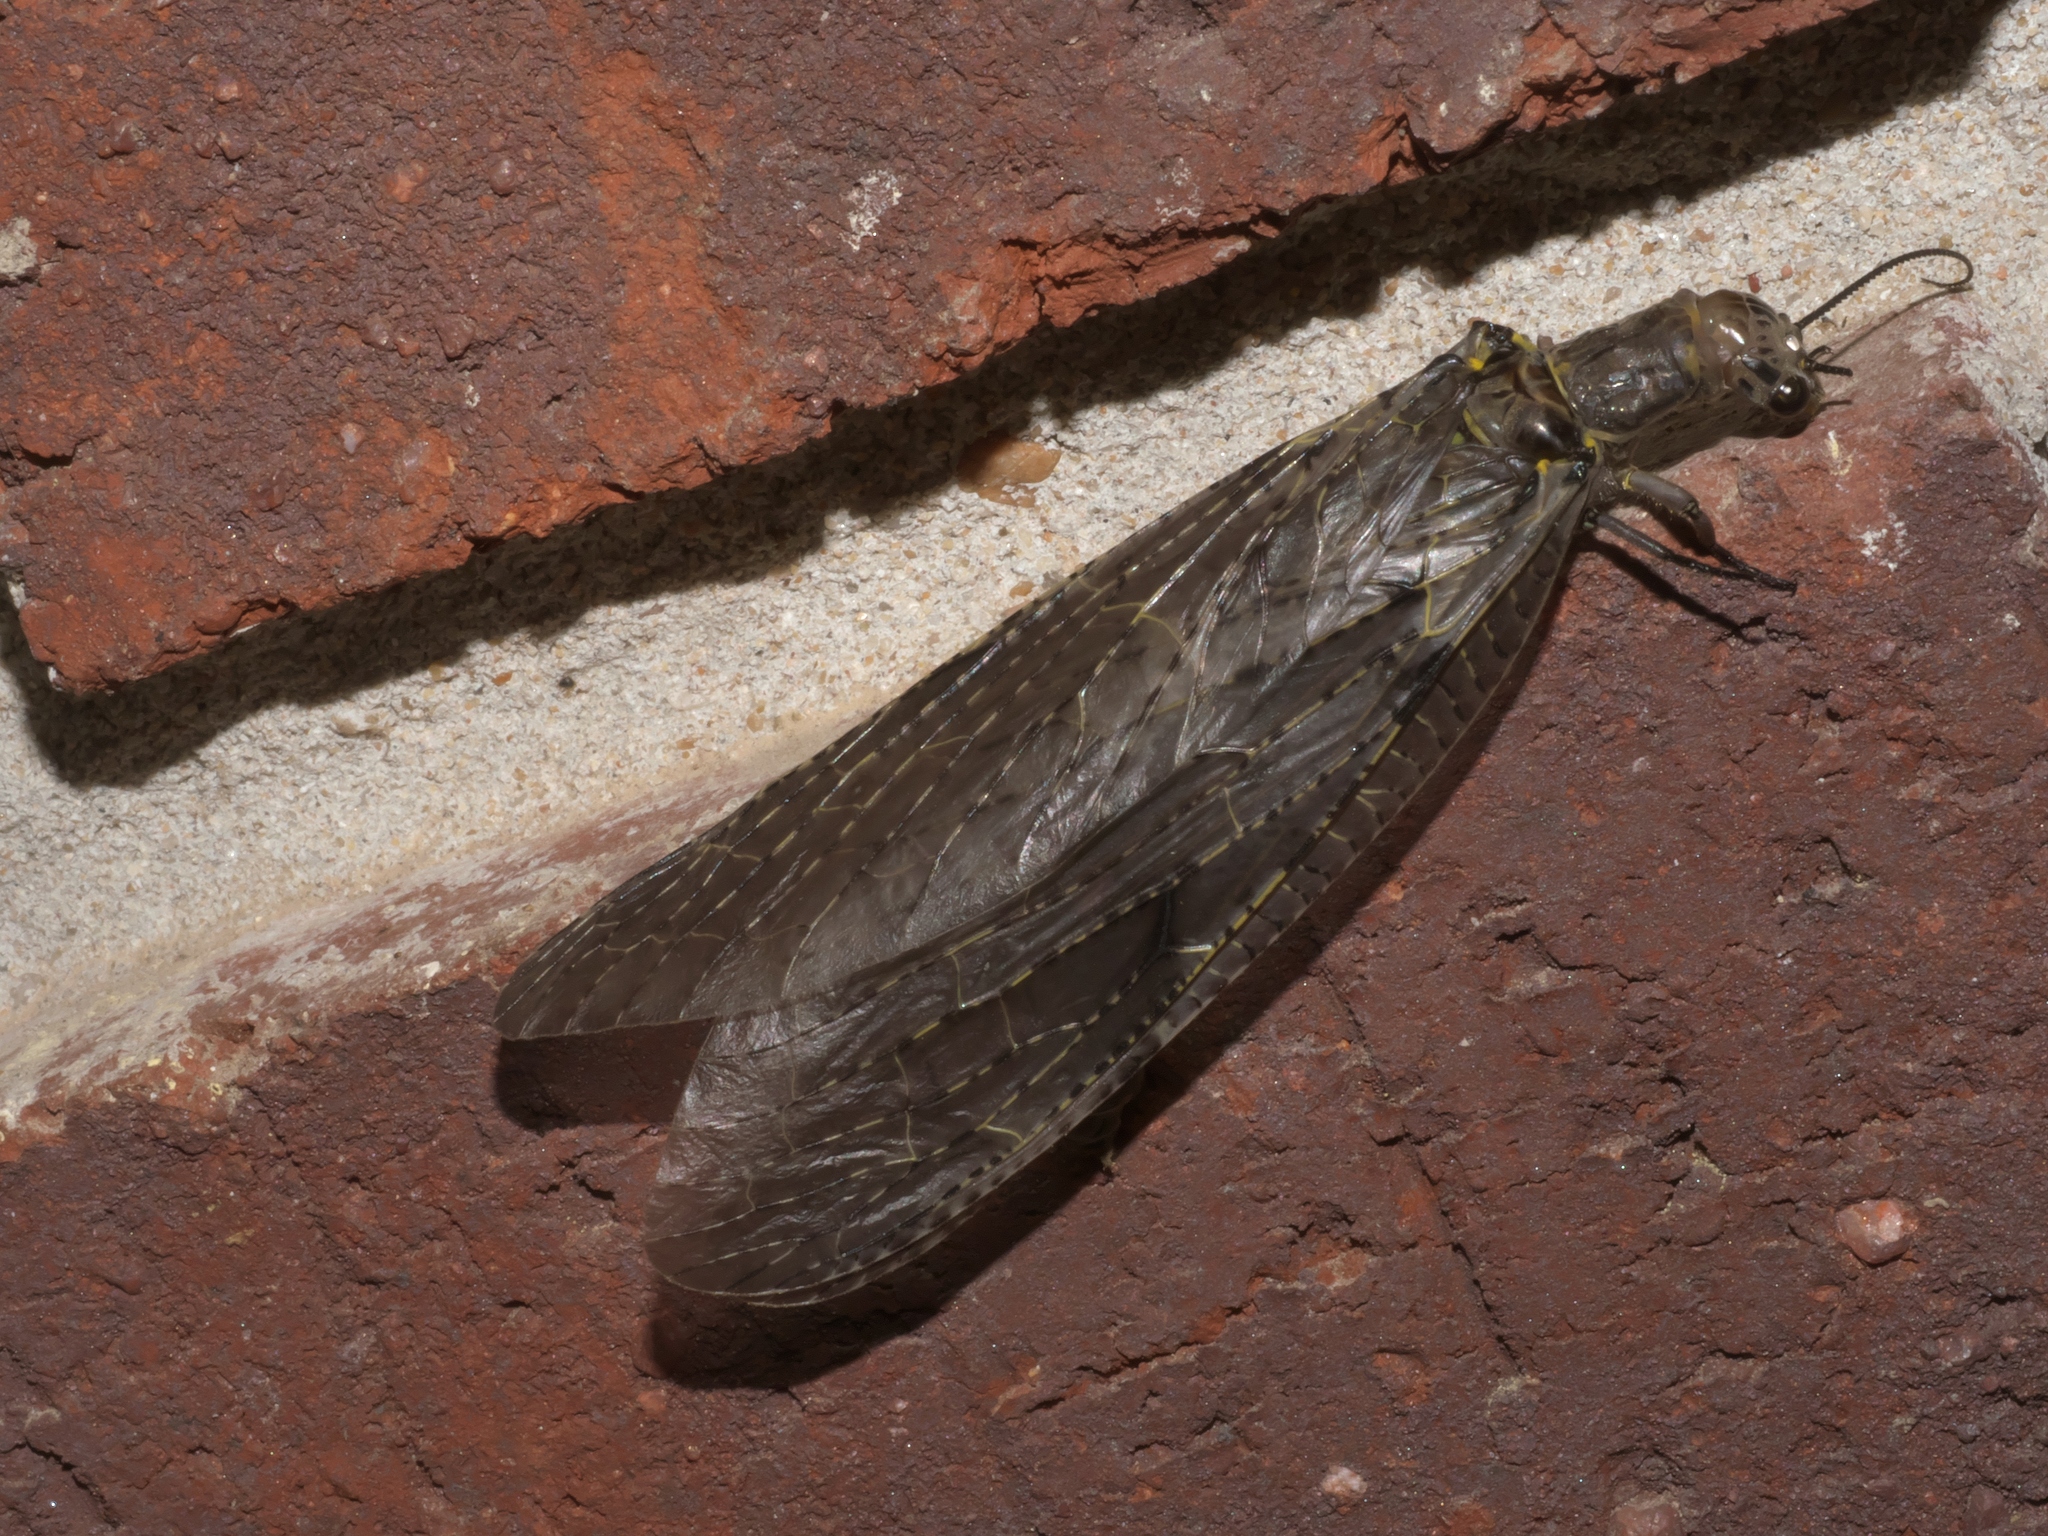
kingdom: Animalia
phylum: Arthropoda
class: Insecta
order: Megaloptera
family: Corydalidae
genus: Chauliodes
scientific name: Chauliodes rastricornis
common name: Spring fishfly
